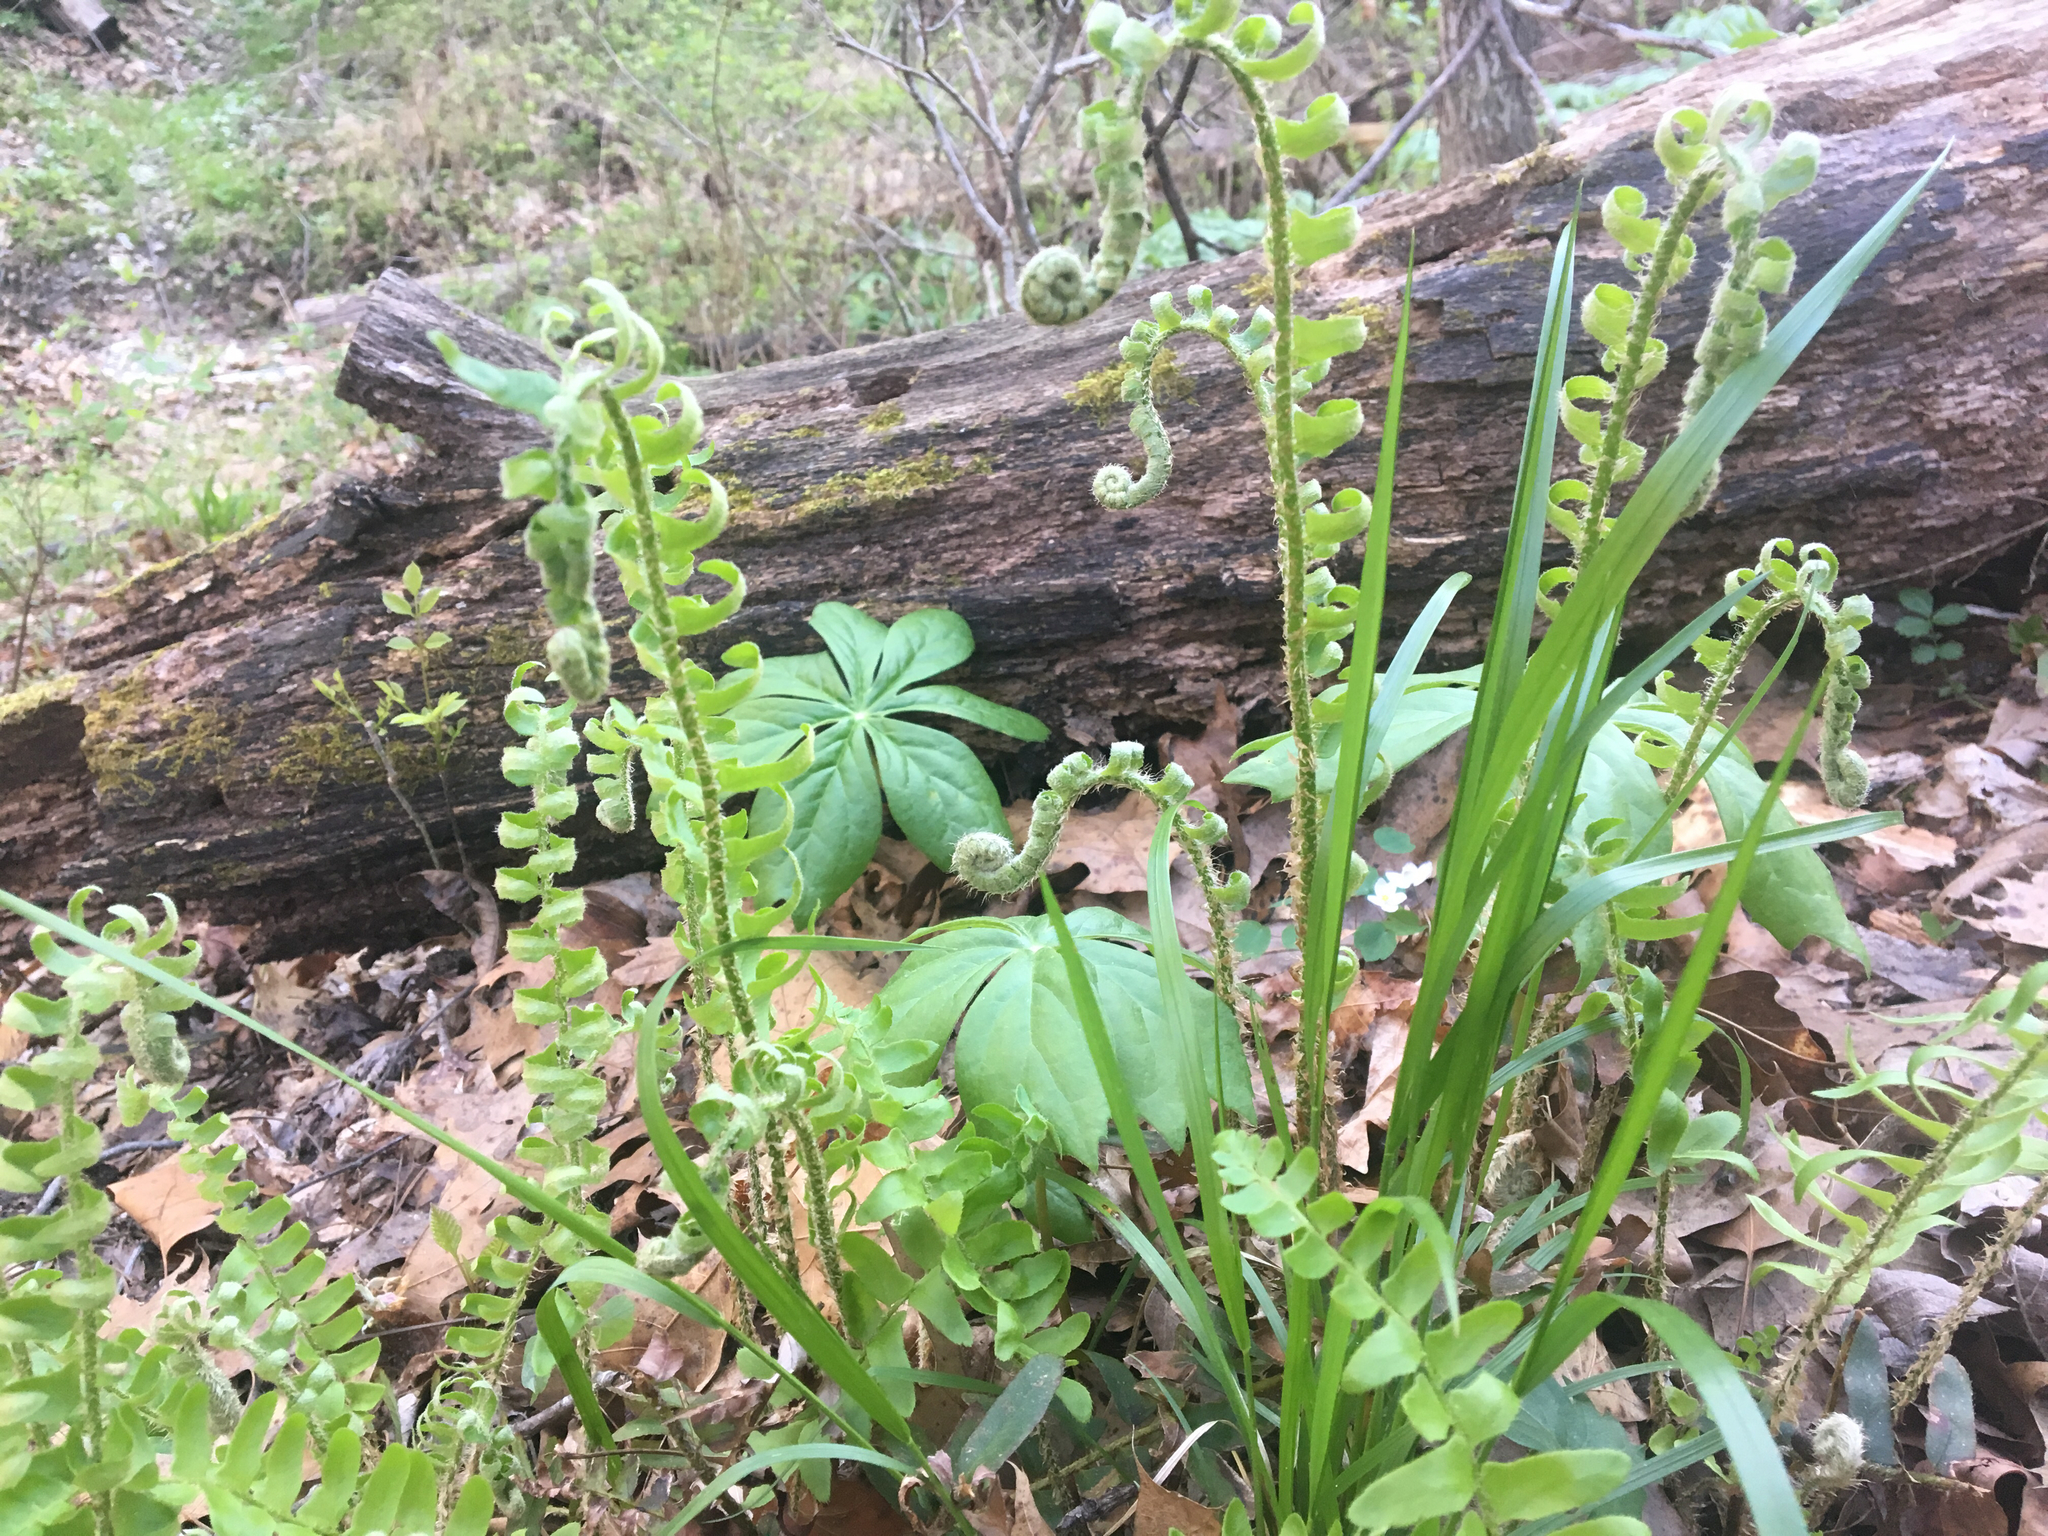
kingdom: Plantae
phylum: Tracheophyta
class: Polypodiopsida
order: Polypodiales
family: Dryopteridaceae
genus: Polystichum
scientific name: Polystichum acrostichoides
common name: Christmas fern
